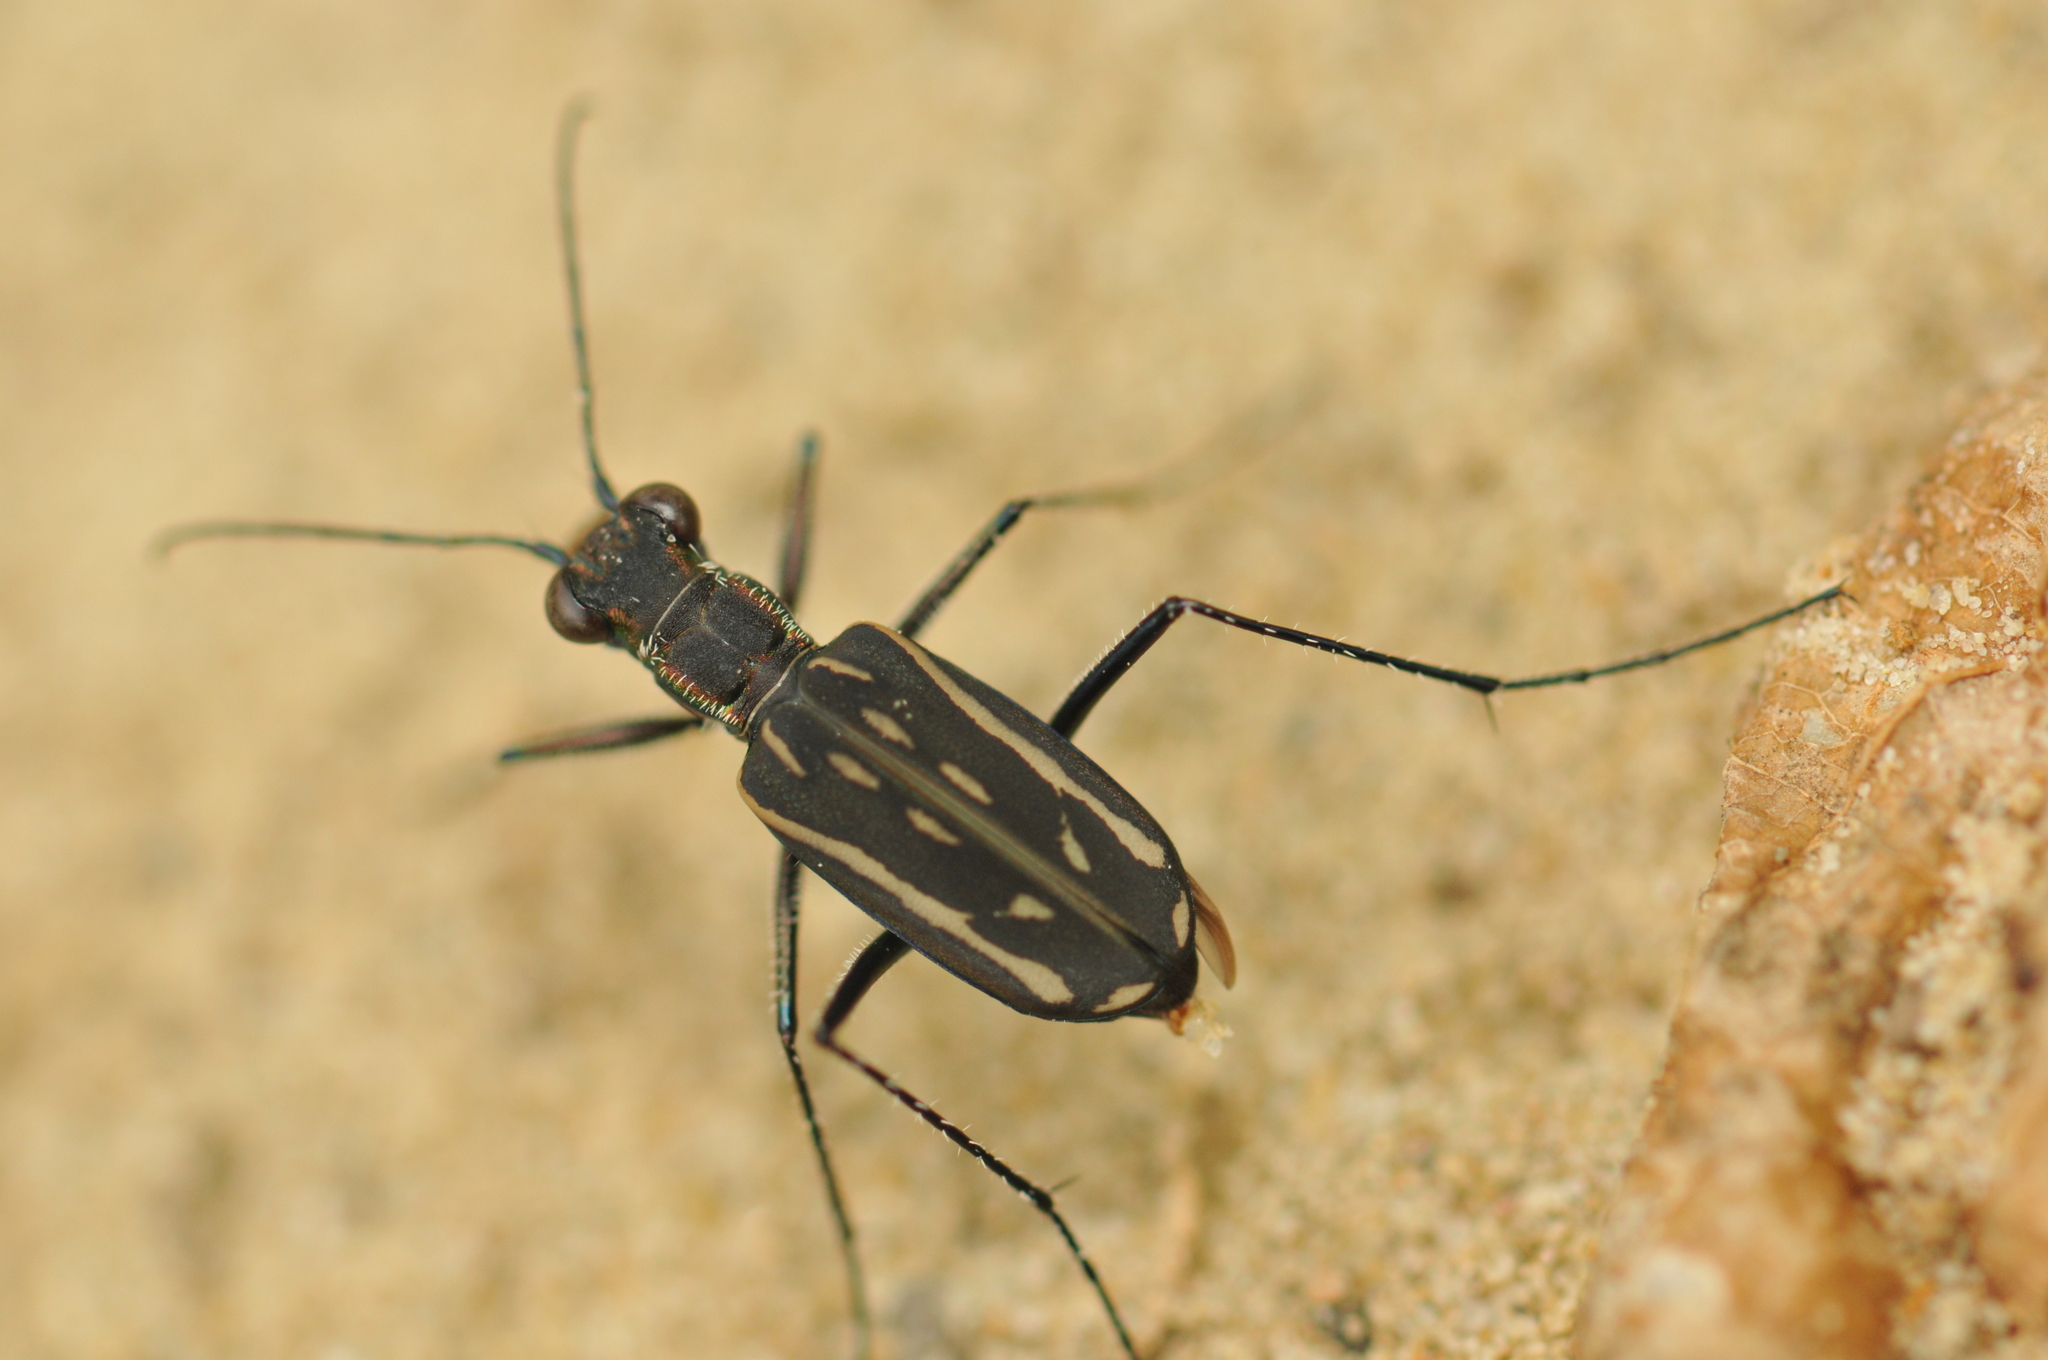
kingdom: Animalia
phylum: Arthropoda
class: Insecta
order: Coleoptera
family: Carabidae
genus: Lophyra
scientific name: Lophyra striolata
